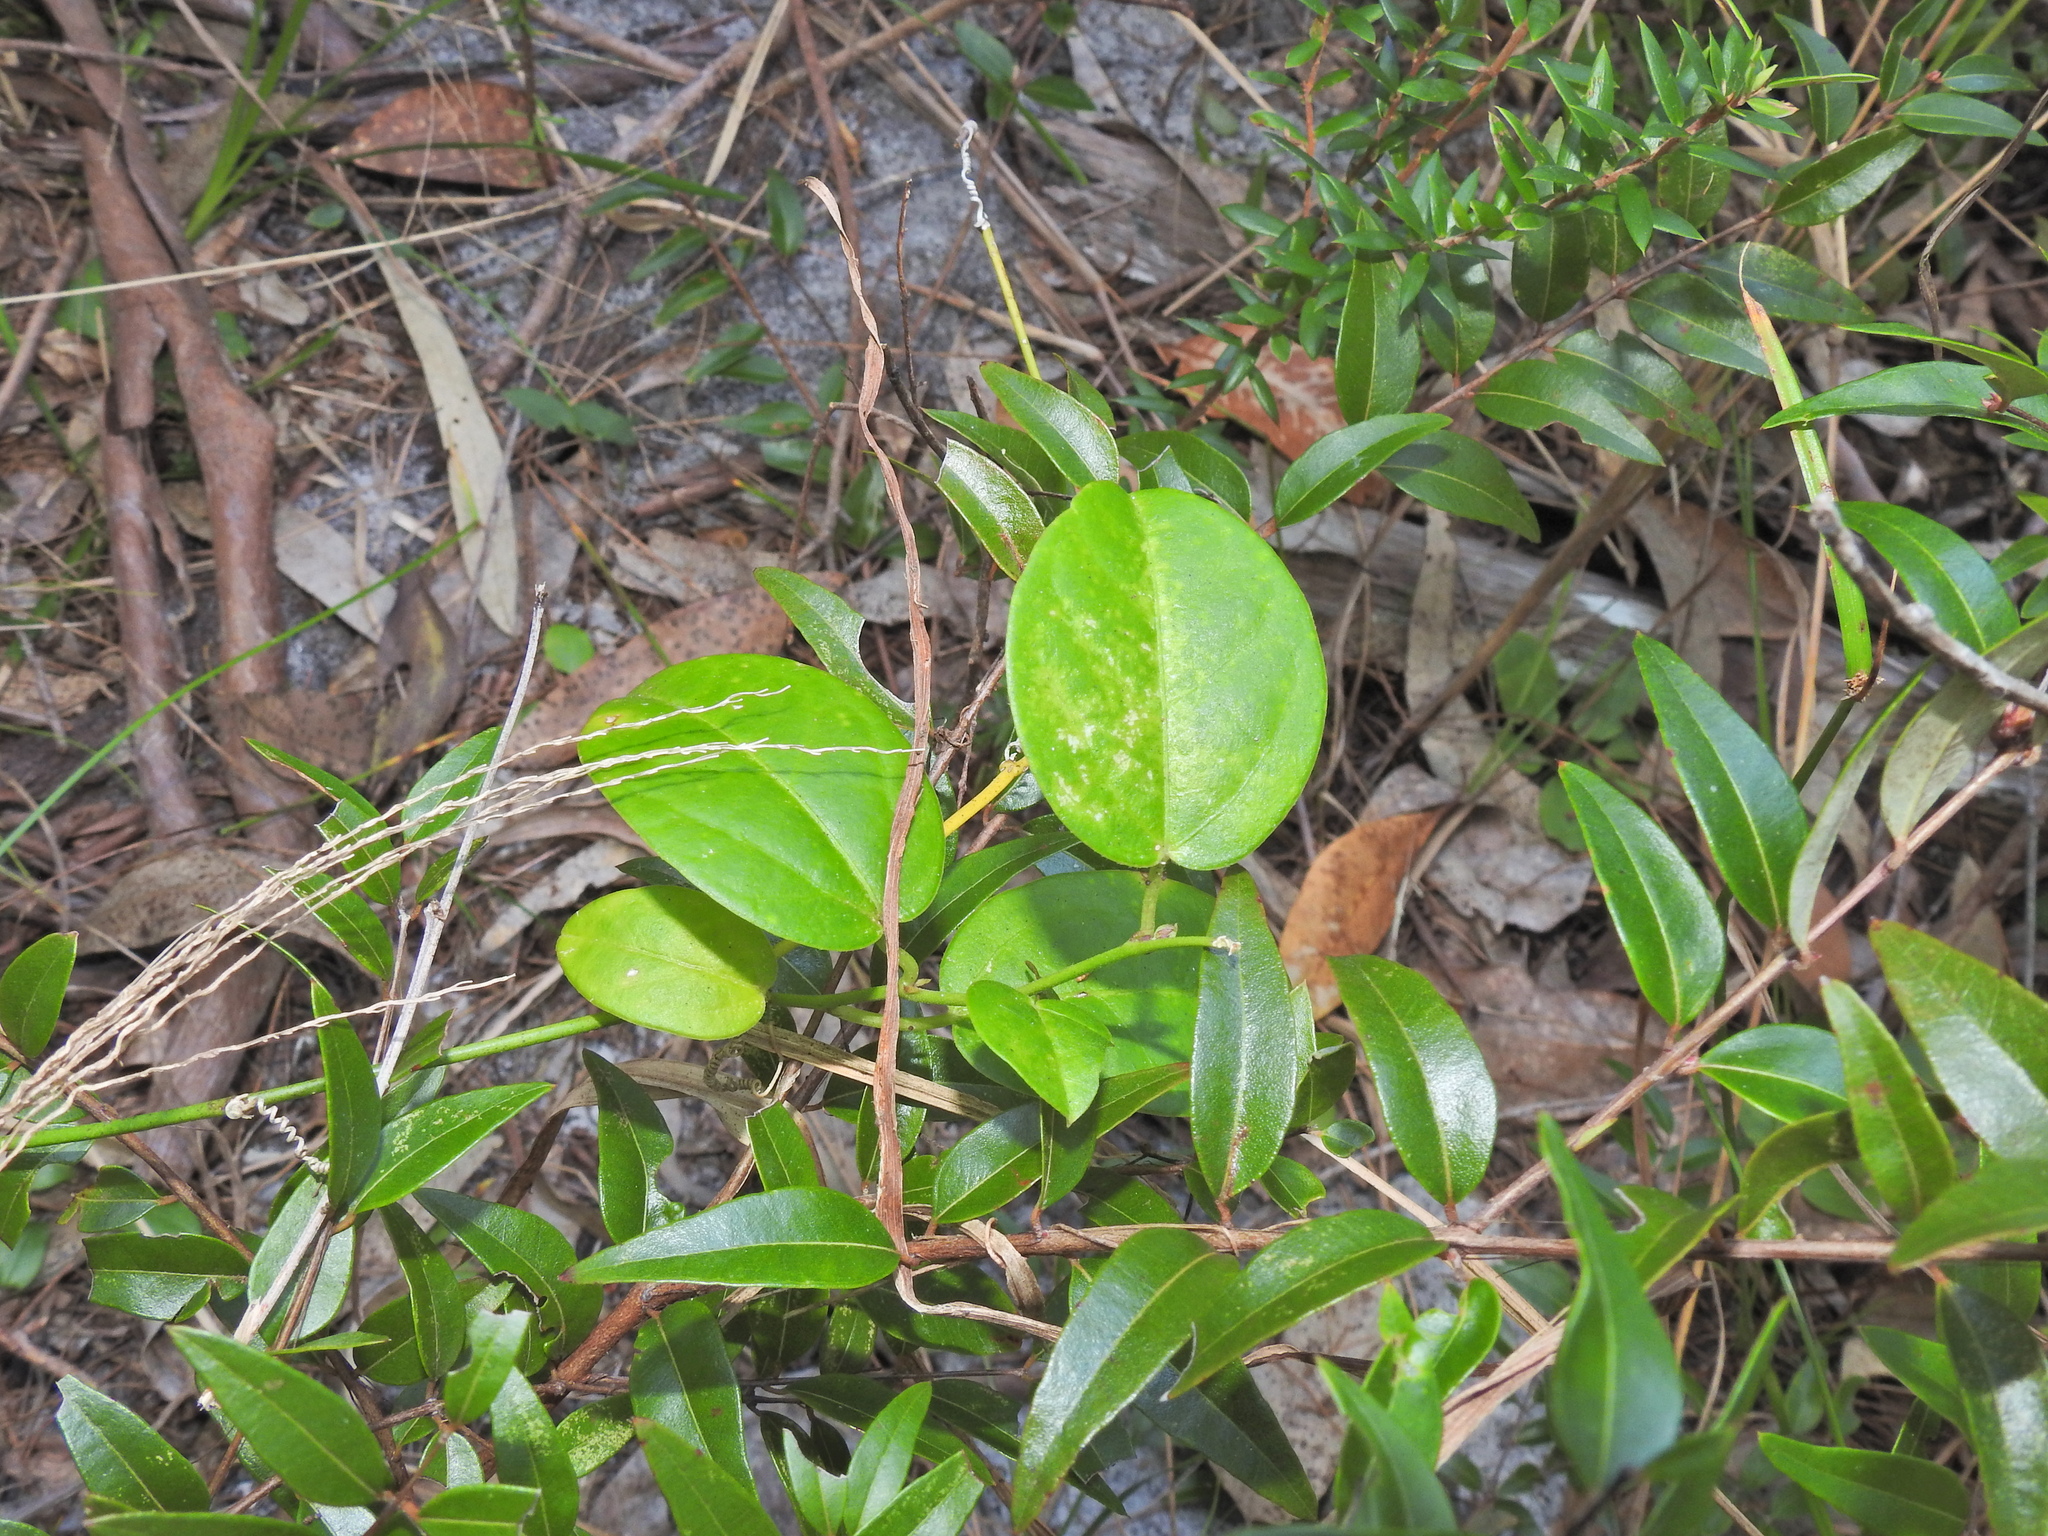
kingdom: Plantae
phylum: Tracheophyta
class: Magnoliopsida
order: Malpighiales
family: Passifloraceae
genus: Passiflora
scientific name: Passiflora pallida
